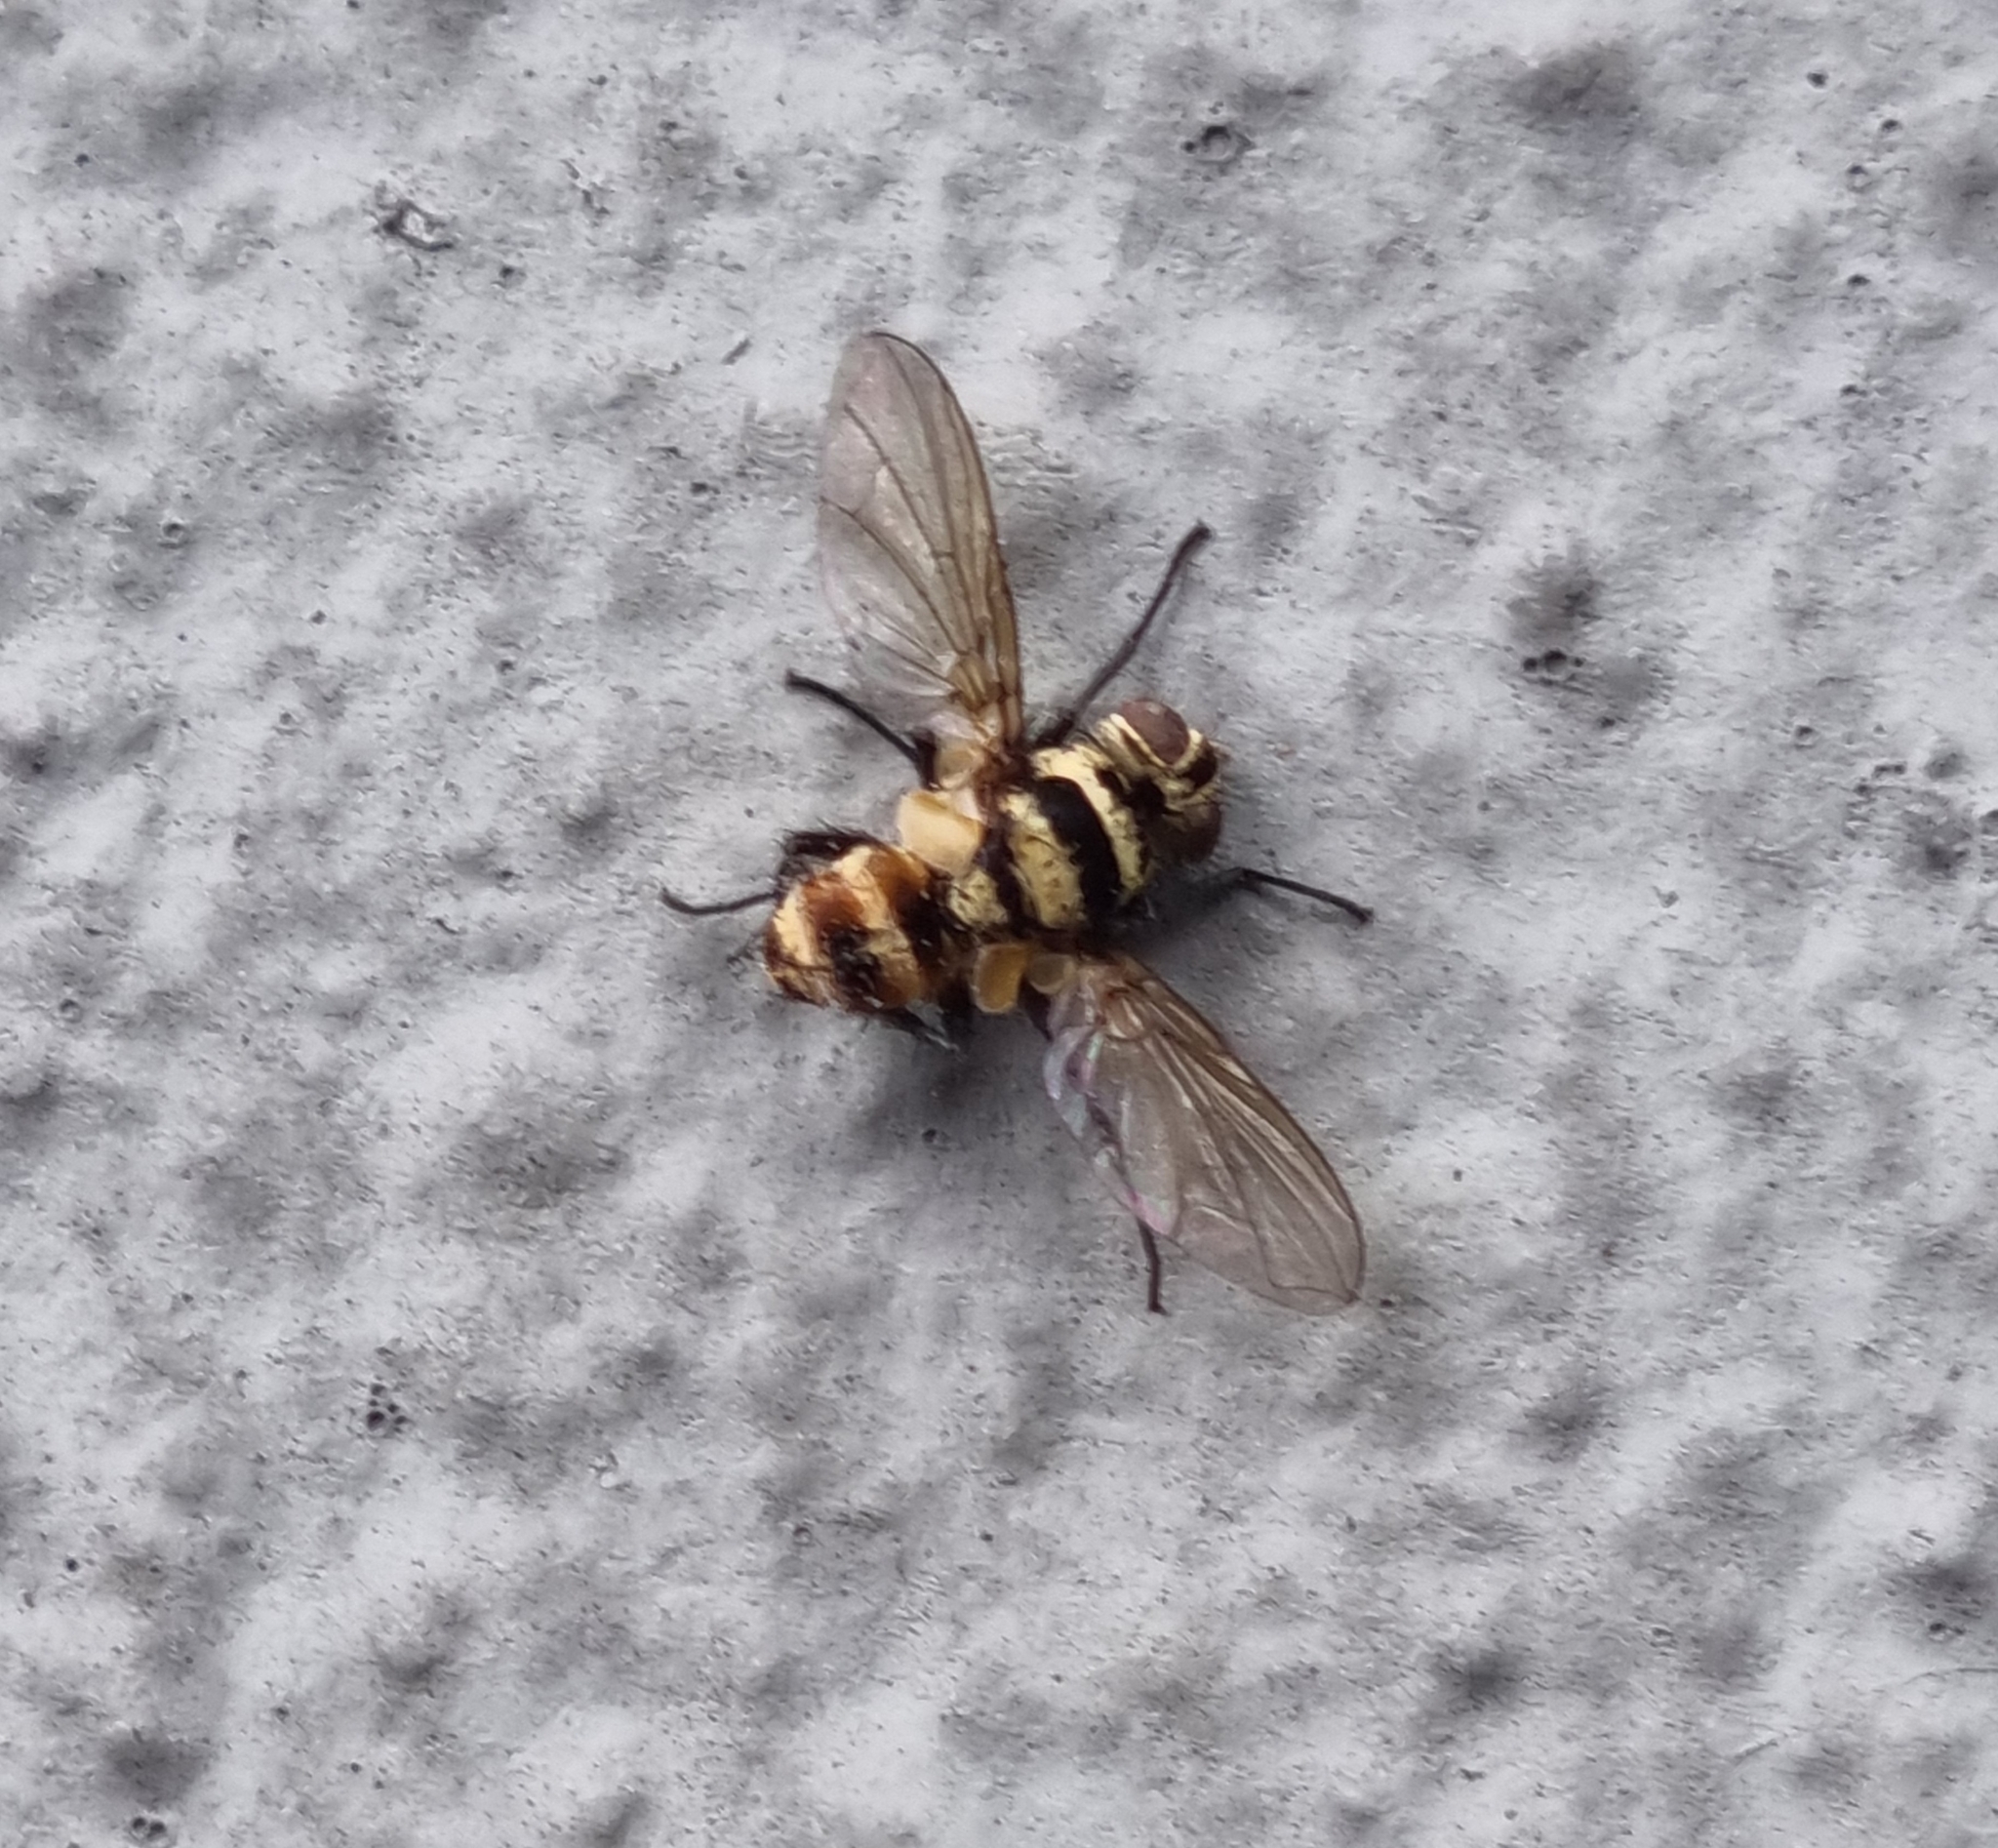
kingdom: Animalia
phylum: Arthropoda
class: Insecta
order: Diptera
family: Tachinidae
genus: Trigonospila
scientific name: Trigonospila brevifacies
